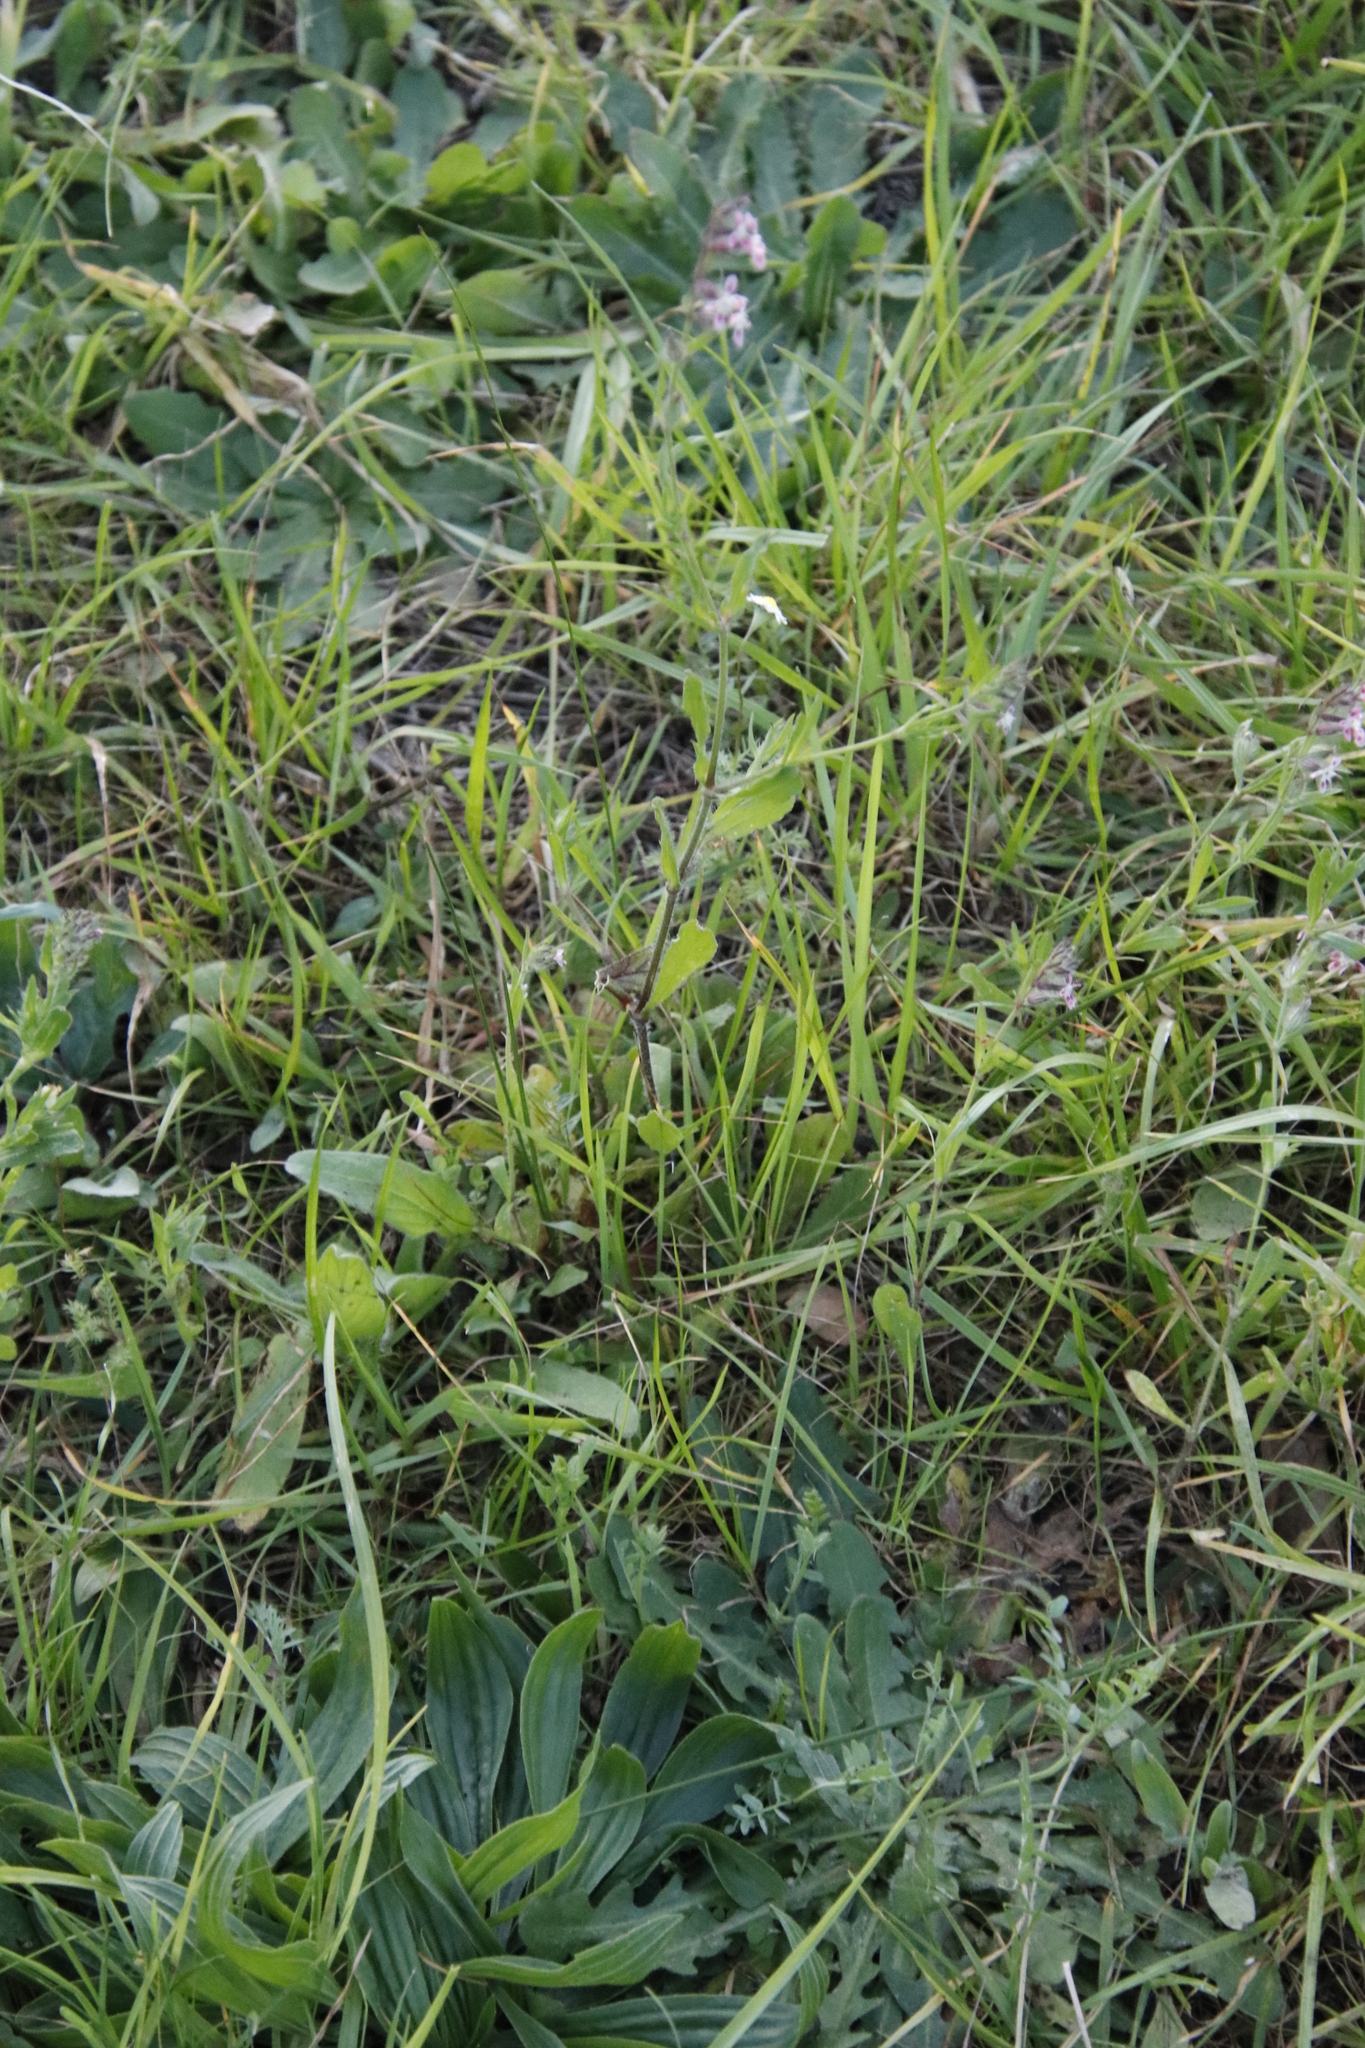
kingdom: Plantae
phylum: Tracheophyta
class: Magnoliopsida
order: Caryophyllales
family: Caryophyllaceae
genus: Silene
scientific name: Silene gallica
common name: Small-flowered catchfly
